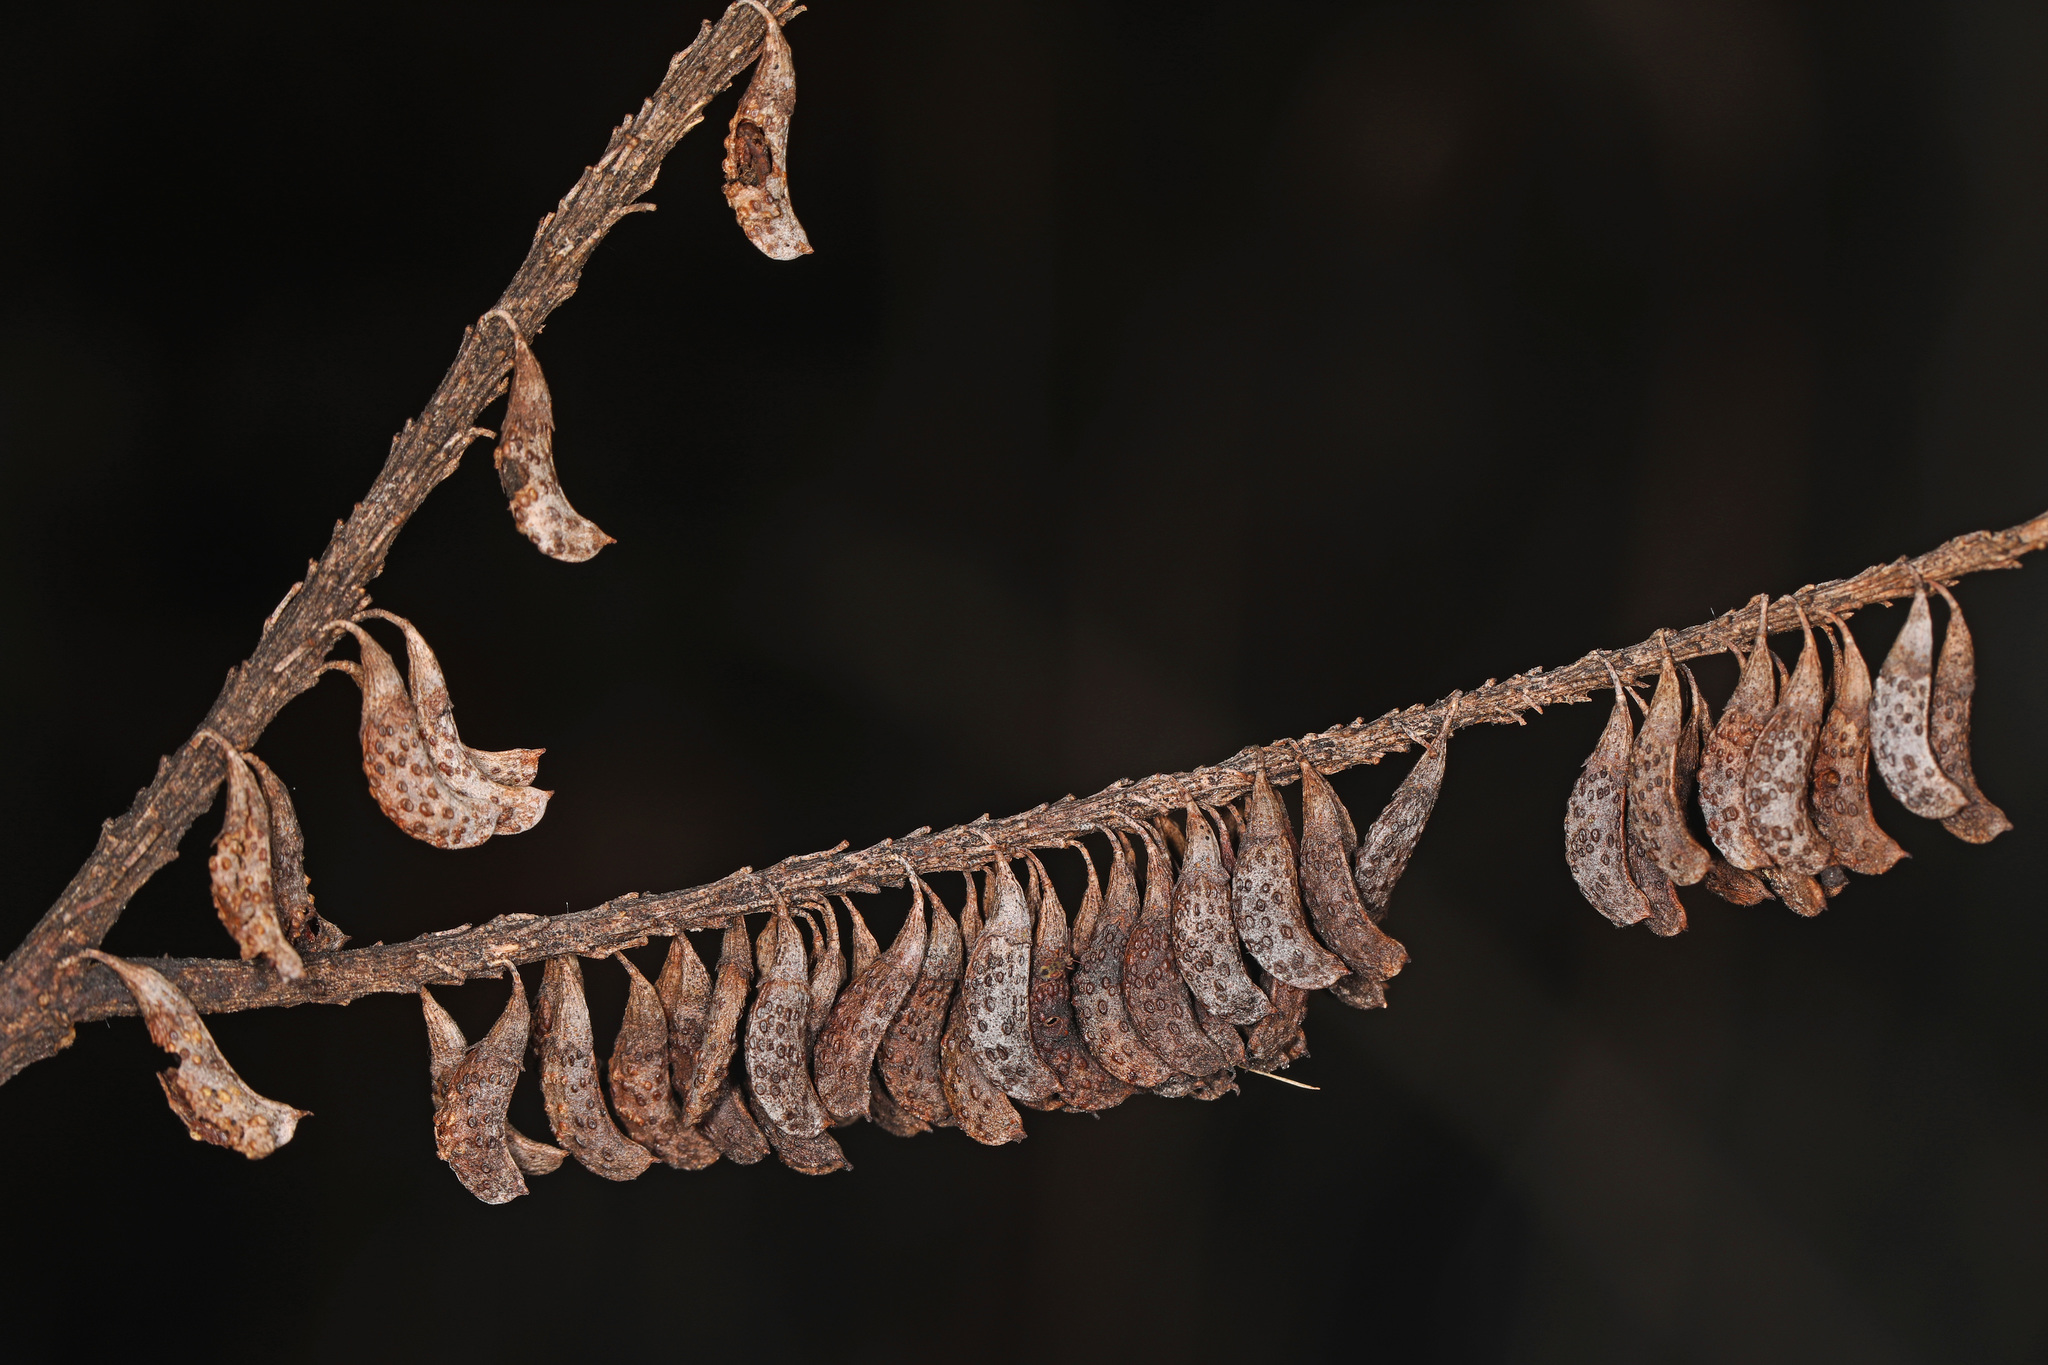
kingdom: Plantae
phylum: Tracheophyta
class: Magnoliopsida
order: Fabales
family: Fabaceae
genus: Amorpha
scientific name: Amorpha fruticosa
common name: False indigo
